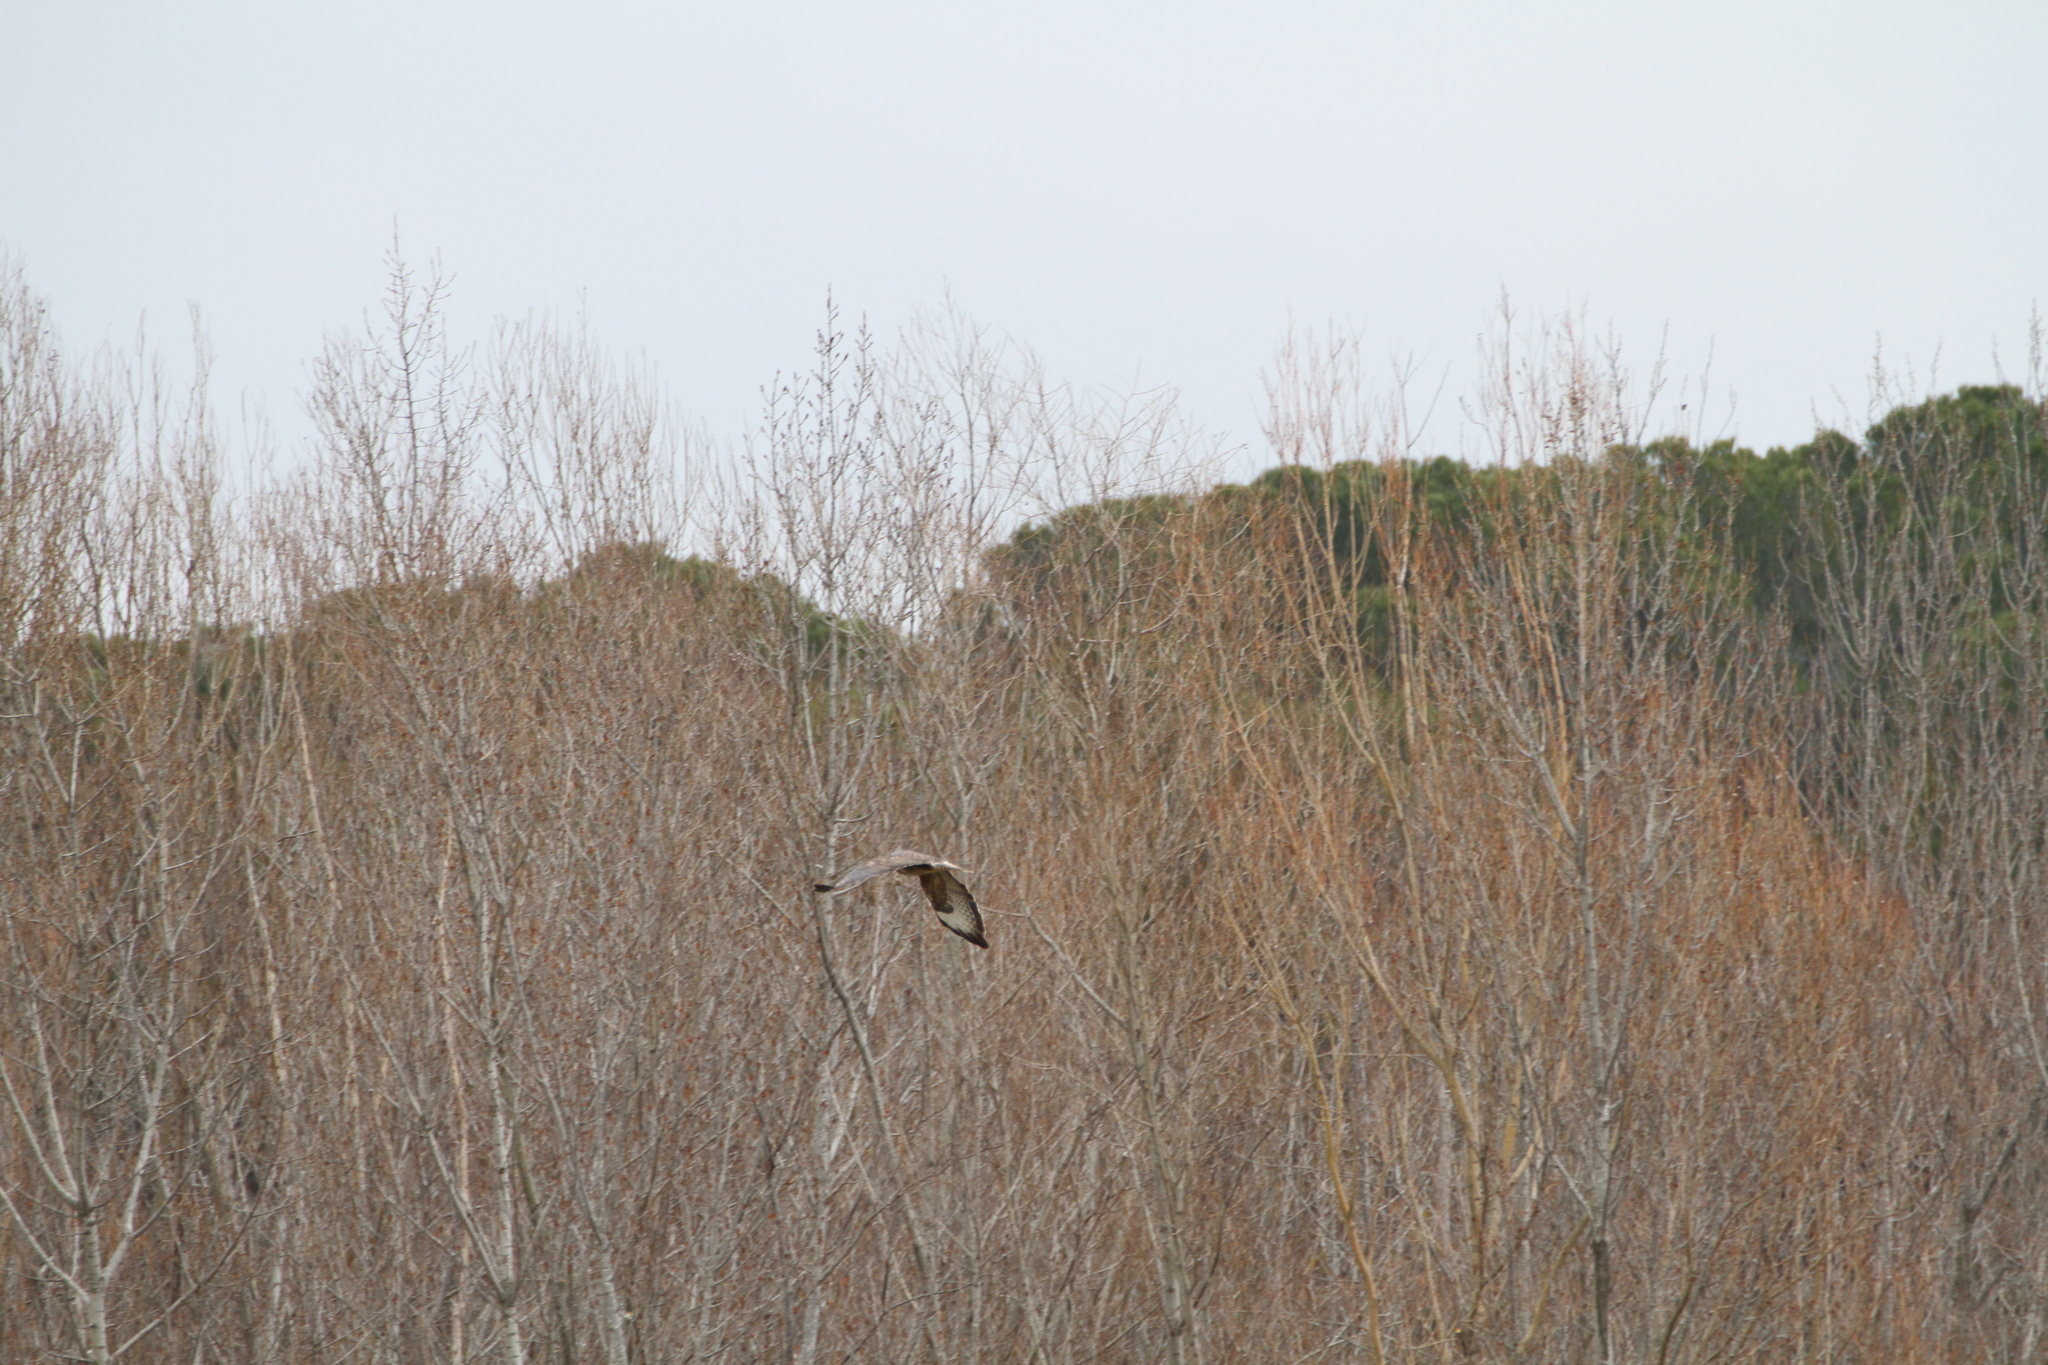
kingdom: Animalia
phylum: Chordata
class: Aves
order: Accipitriformes
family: Accipitridae
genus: Buteo
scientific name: Buteo buteo
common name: Common buzzard
